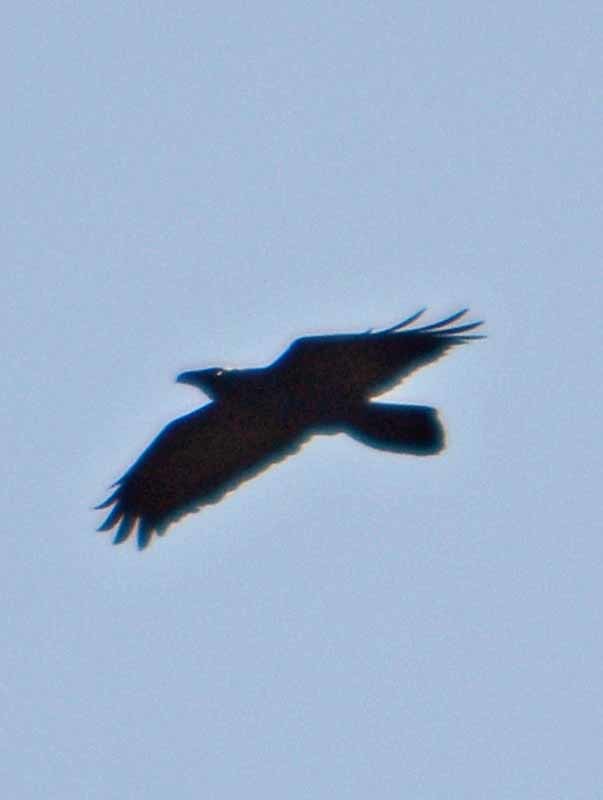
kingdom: Animalia
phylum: Chordata
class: Aves
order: Passeriformes
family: Corvidae
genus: Corvus
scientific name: Corvus corax
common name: Common raven
